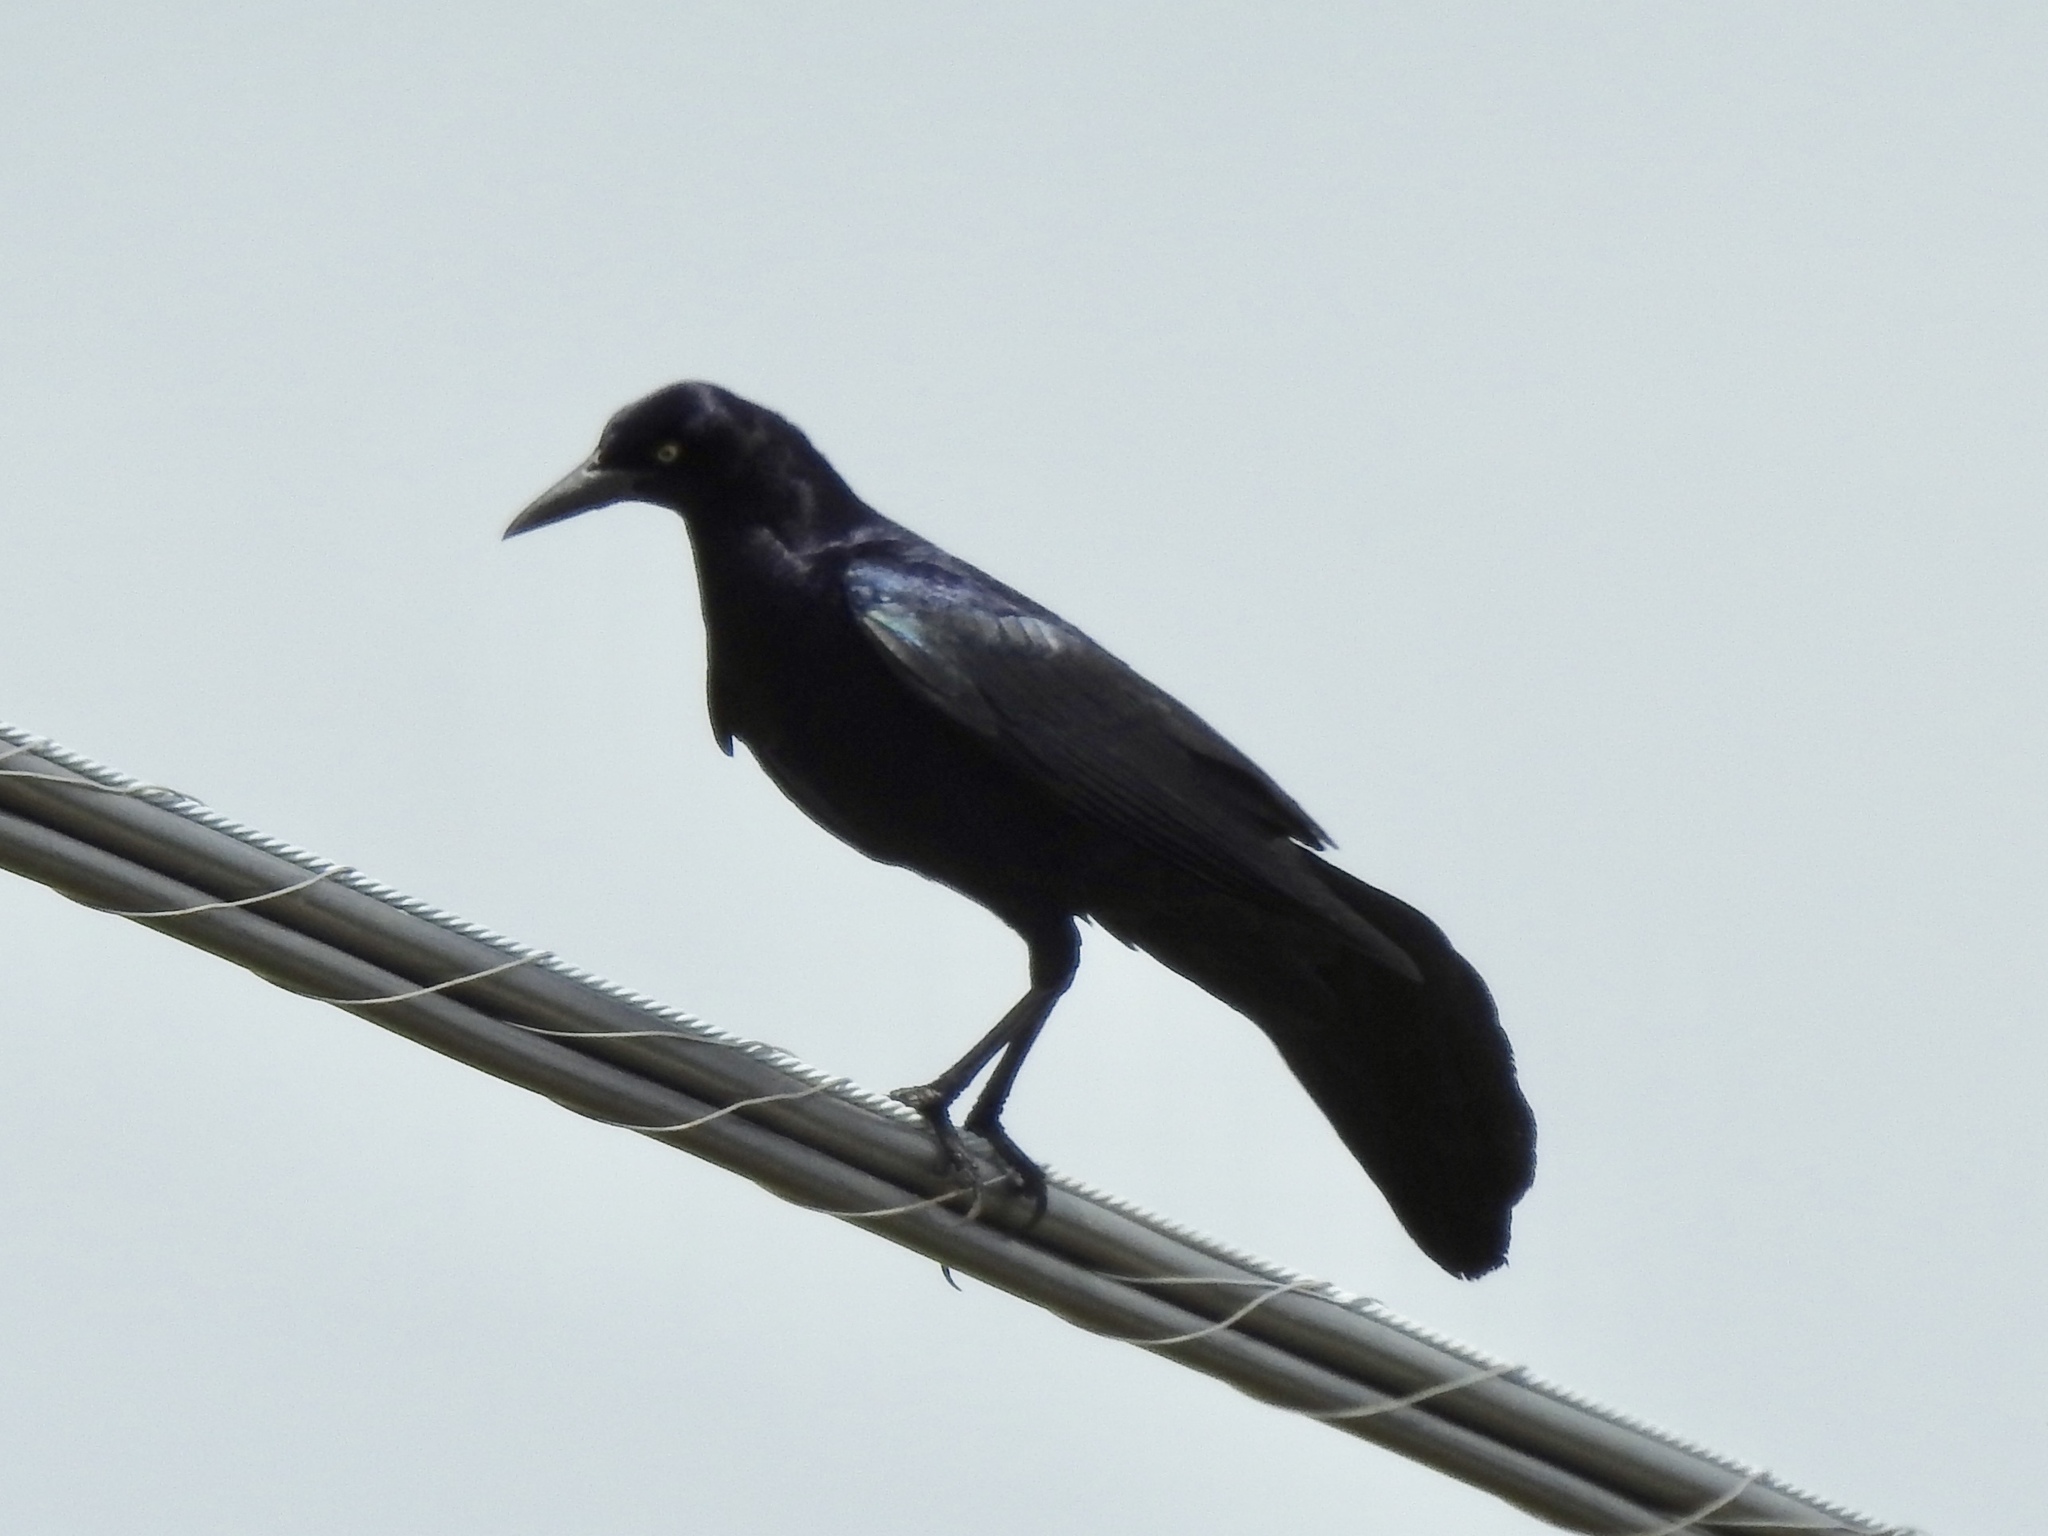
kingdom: Animalia
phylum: Chordata
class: Aves
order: Passeriformes
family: Icteridae
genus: Quiscalus
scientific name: Quiscalus mexicanus
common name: Great-tailed grackle
